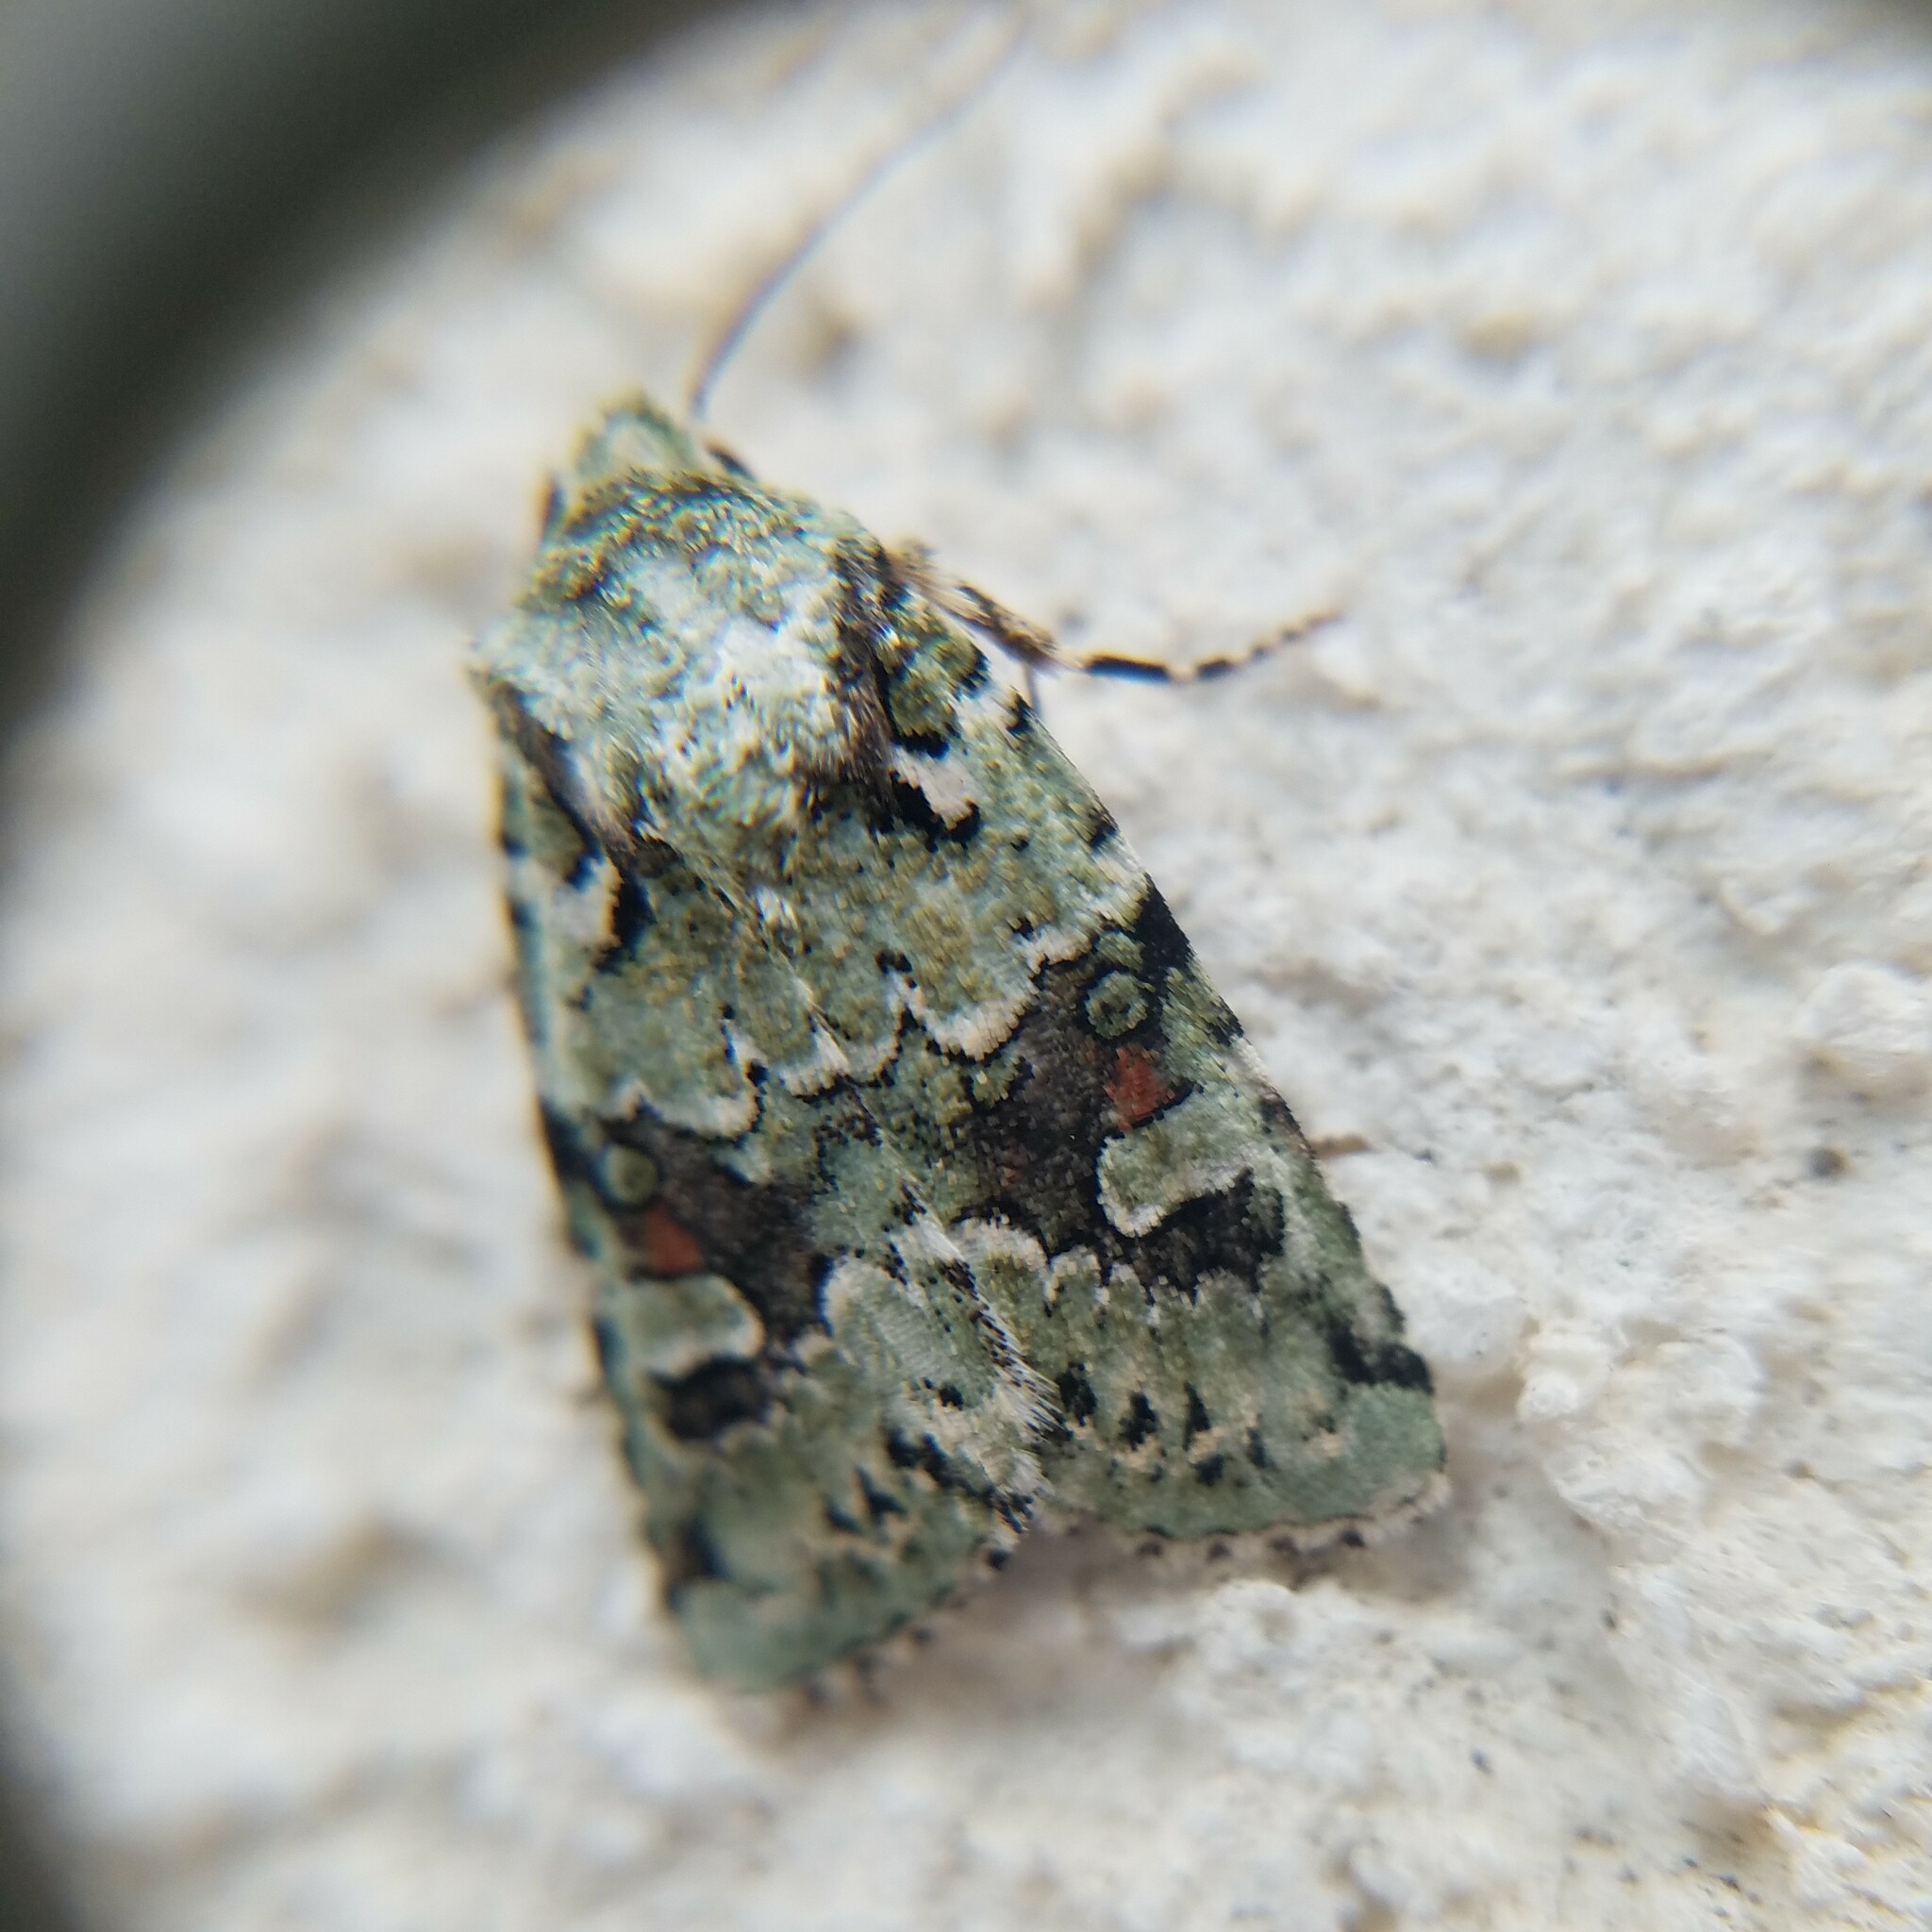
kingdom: Animalia
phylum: Arthropoda
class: Insecta
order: Lepidoptera
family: Noctuidae
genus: Lacinipolia
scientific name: Lacinipolia laudabilis
